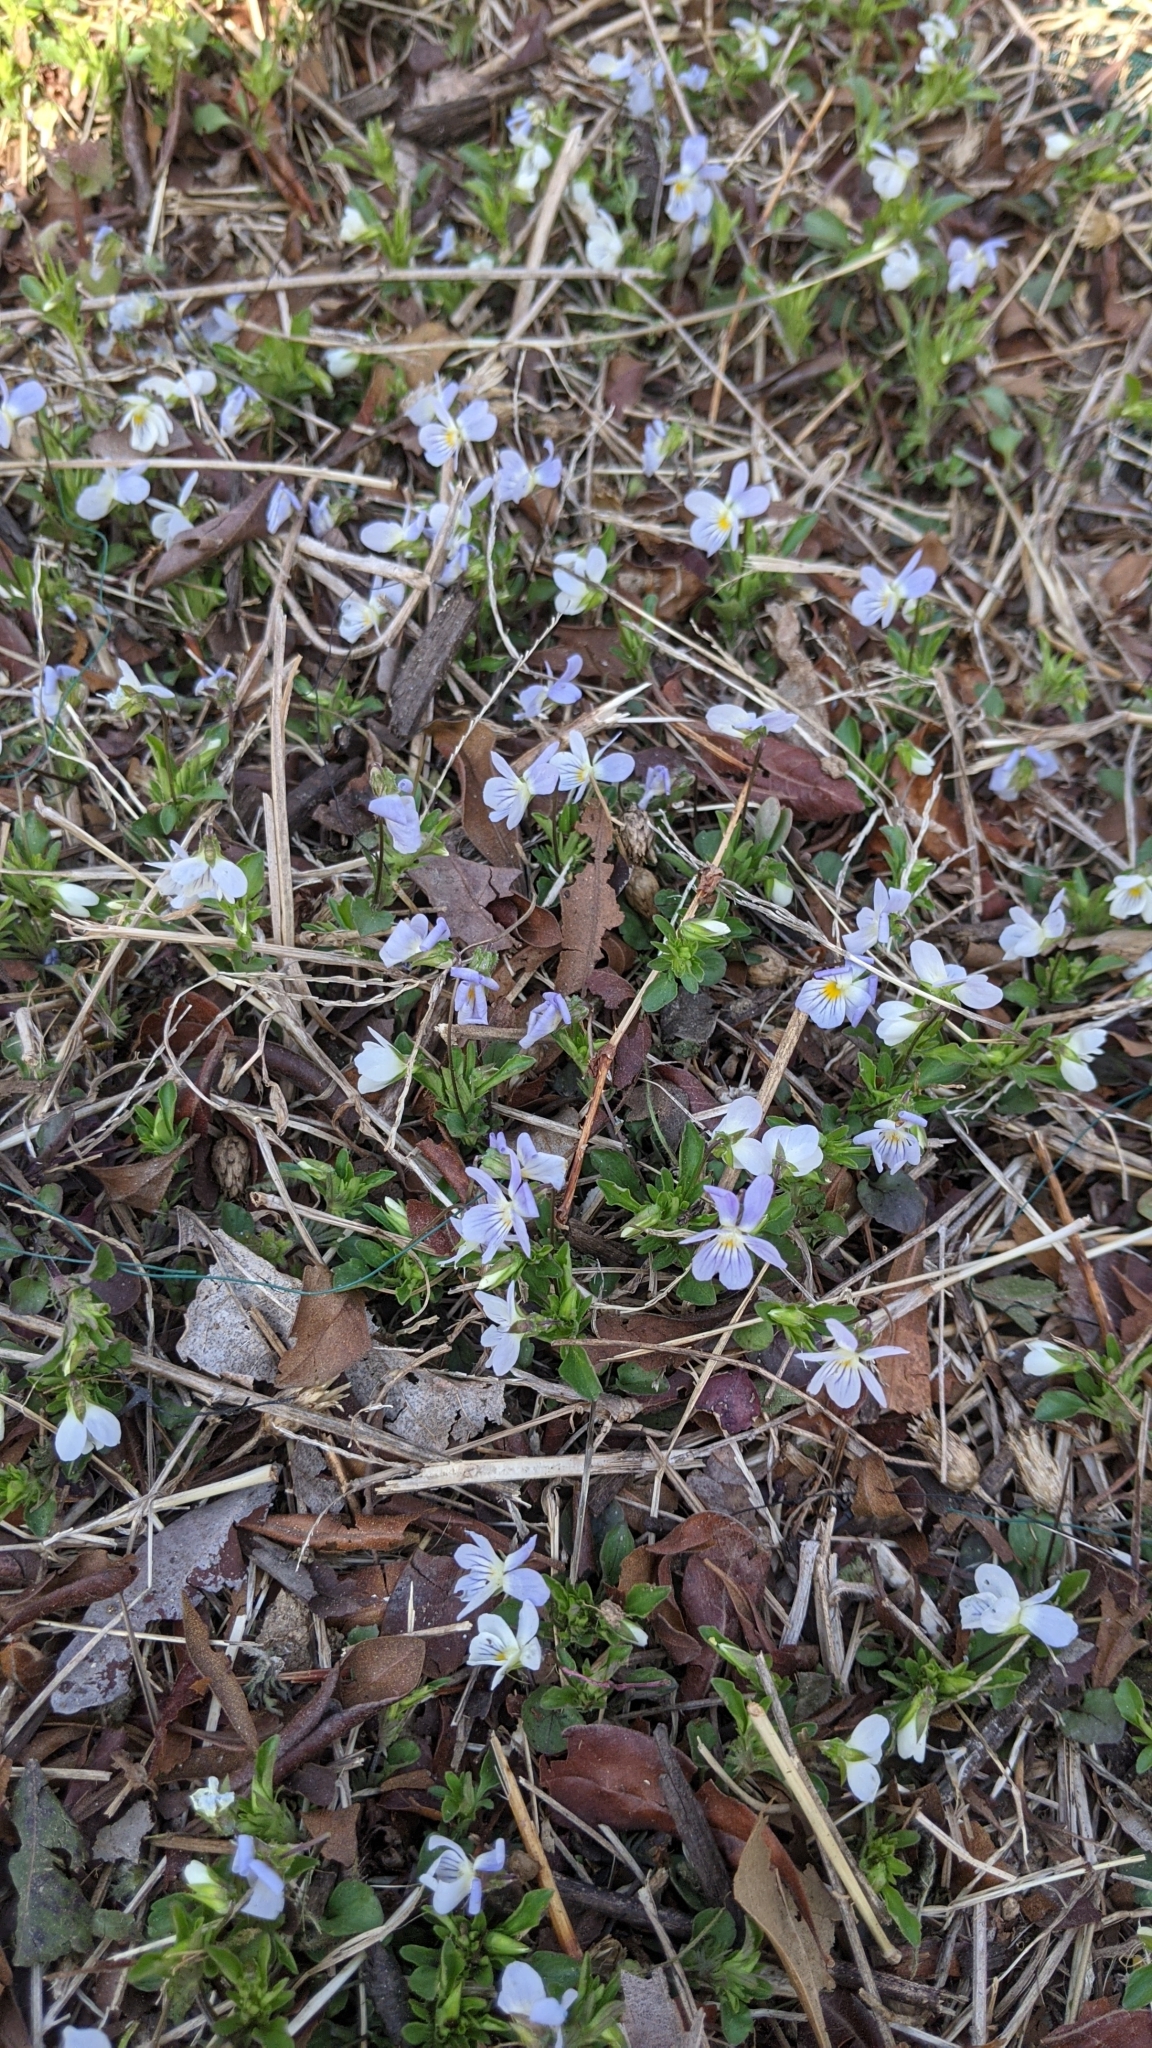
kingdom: Plantae
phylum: Tracheophyta
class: Magnoliopsida
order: Malpighiales
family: Violaceae
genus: Viola
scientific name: Viola rafinesquei
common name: American field pansy
